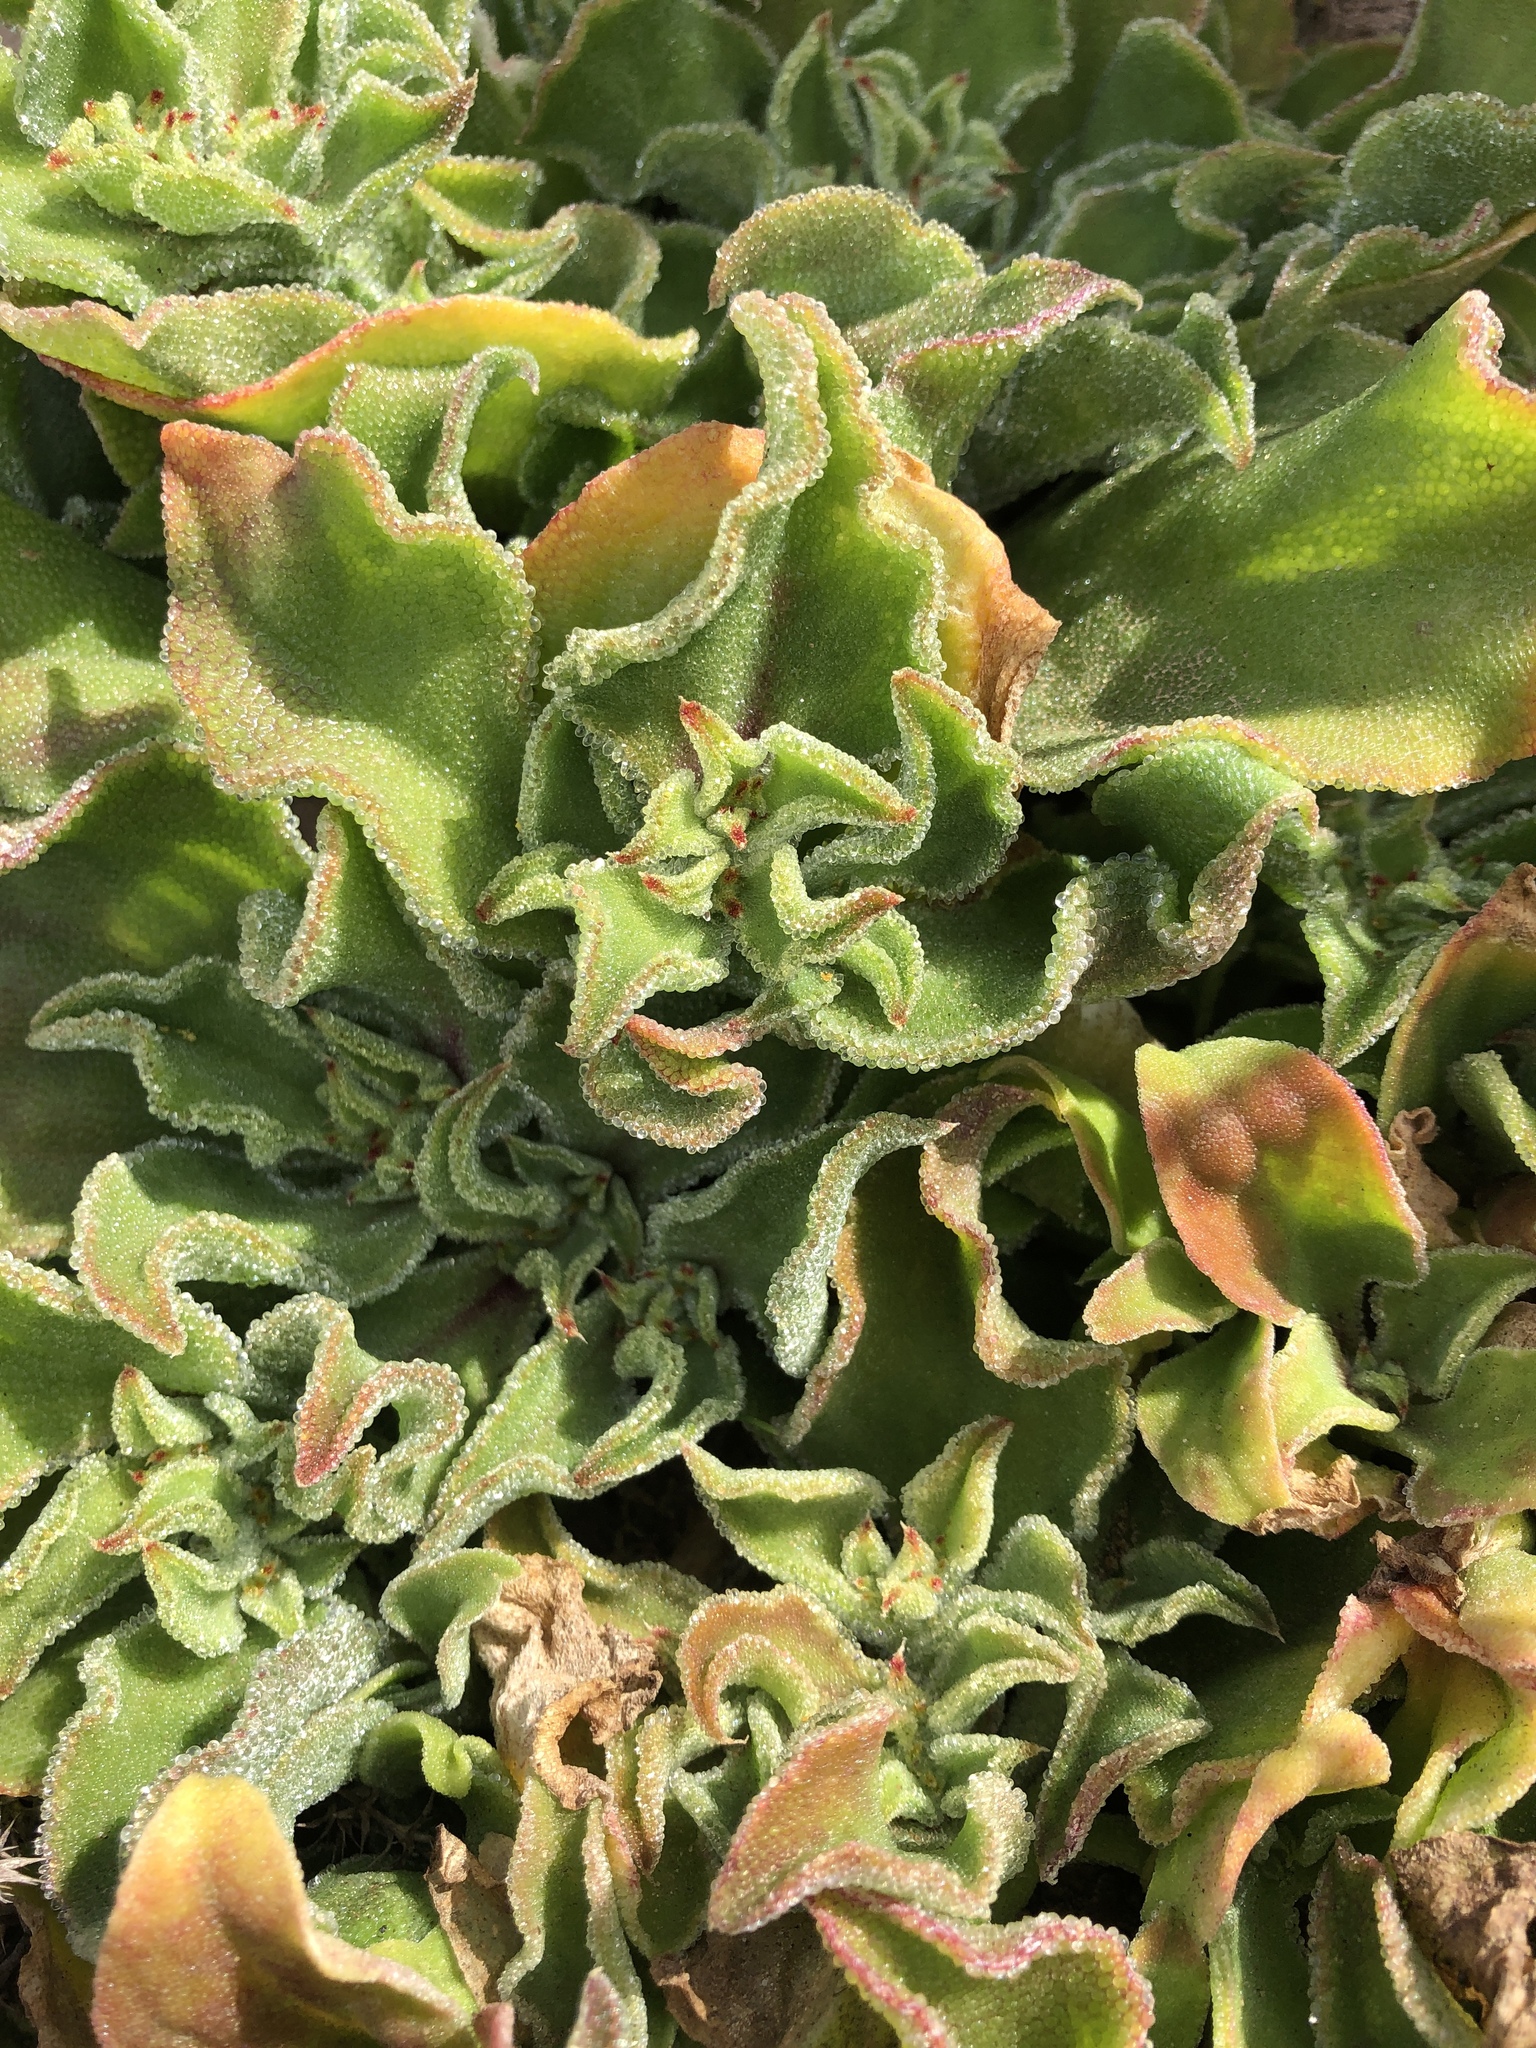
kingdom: Plantae
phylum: Tracheophyta
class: Magnoliopsida
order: Caryophyllales
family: Aizoaceae
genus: Mesembryanthemum
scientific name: Mesembryanthemum crystallinum
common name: Common iceplant
